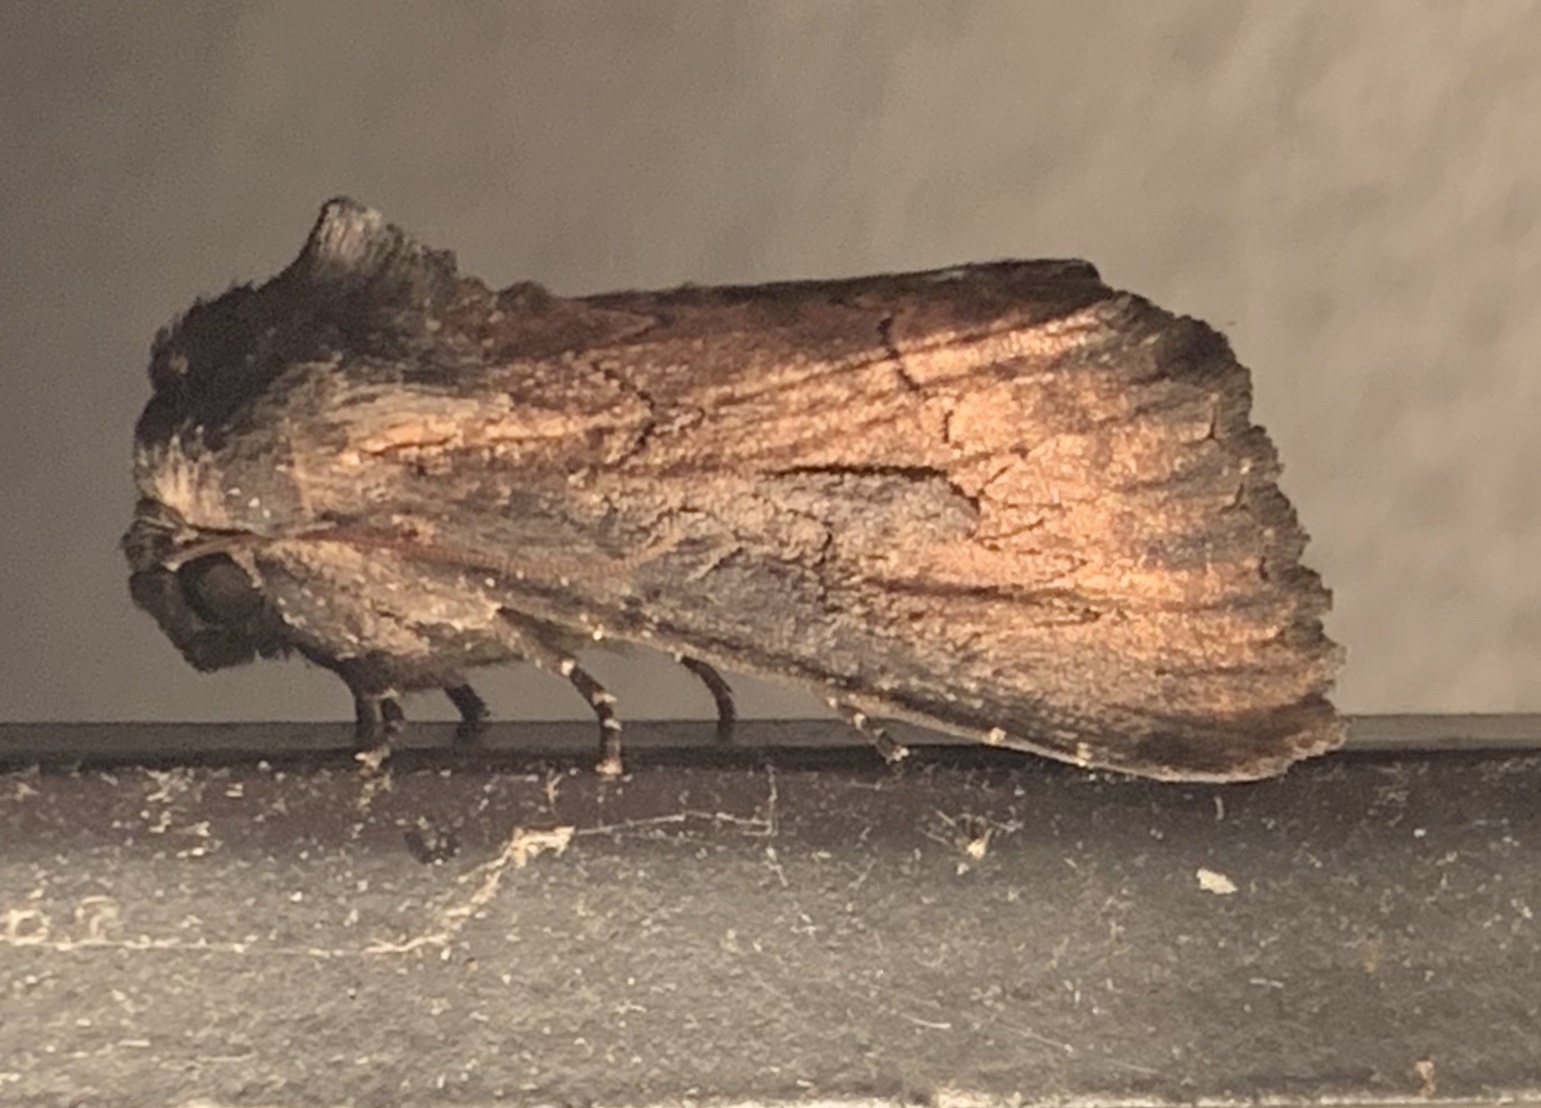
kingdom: Animalia
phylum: Arthropoda
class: Insecta
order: Lepidoptera
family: Noctuidae
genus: Macronoctua
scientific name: Macronoctua onusta
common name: Iris borer
